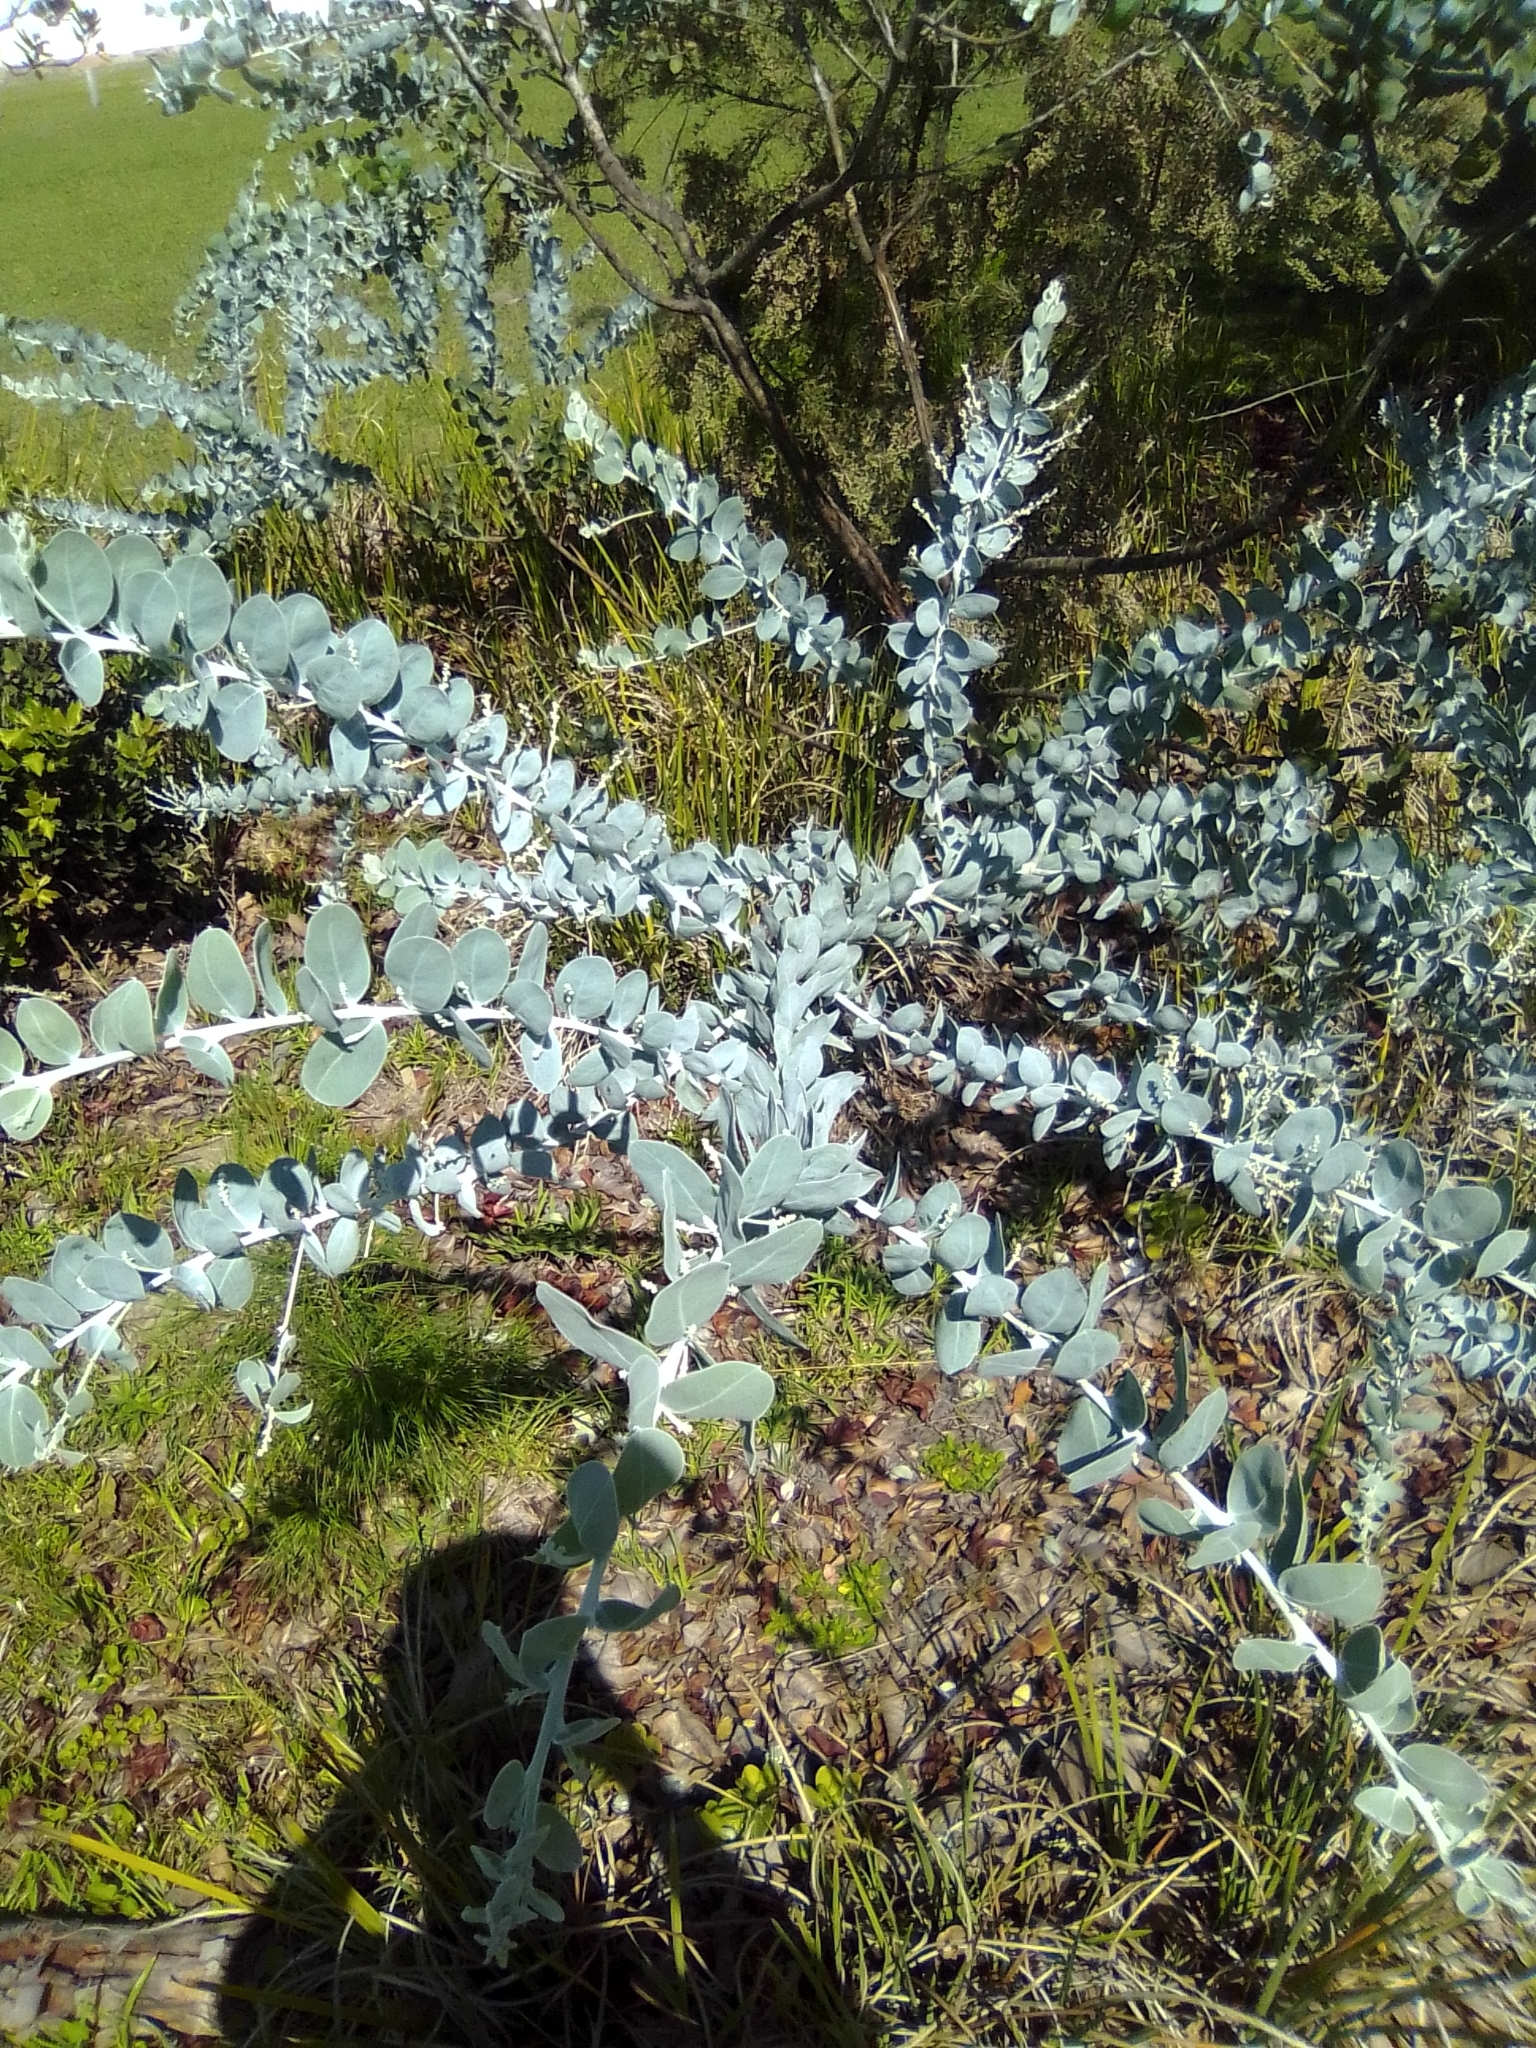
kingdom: Plantae
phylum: Tracheophyta
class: Magnoliopsida
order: Fabales
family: Fabaceae
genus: Acacia
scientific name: Acacia podalyriifolia
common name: Pearl wattle
